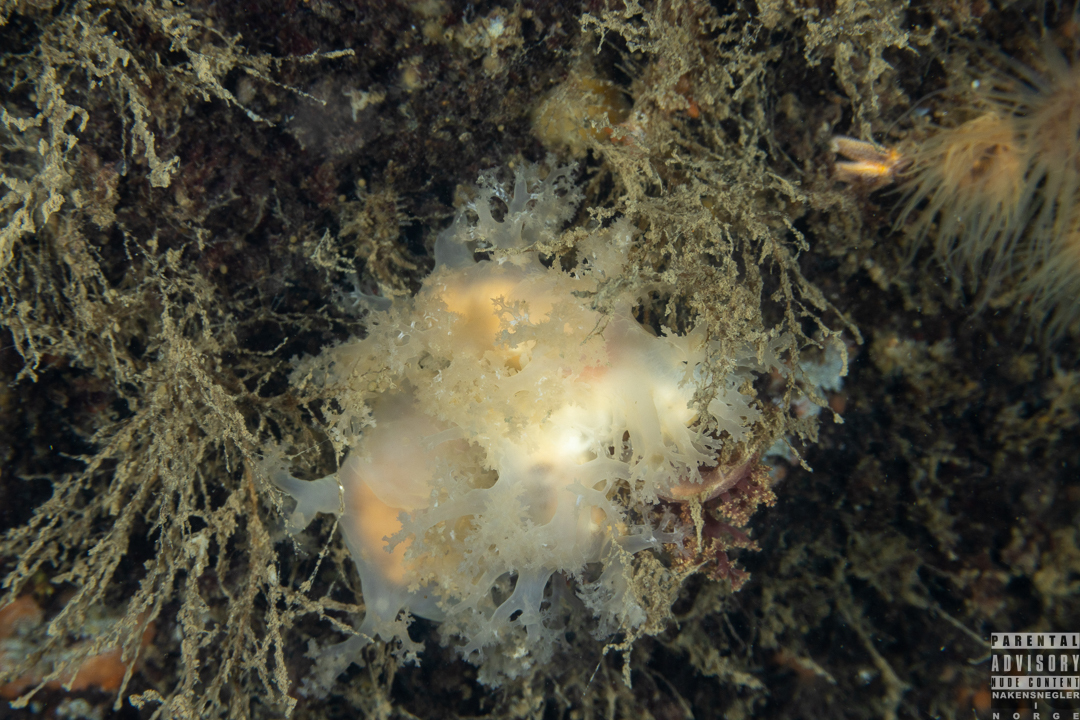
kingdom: Animalia
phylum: Mollusca
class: Gastropoda
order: Nudibranchia
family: Dendronotidae
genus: Dendronotus
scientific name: Dendronotus lacteus
